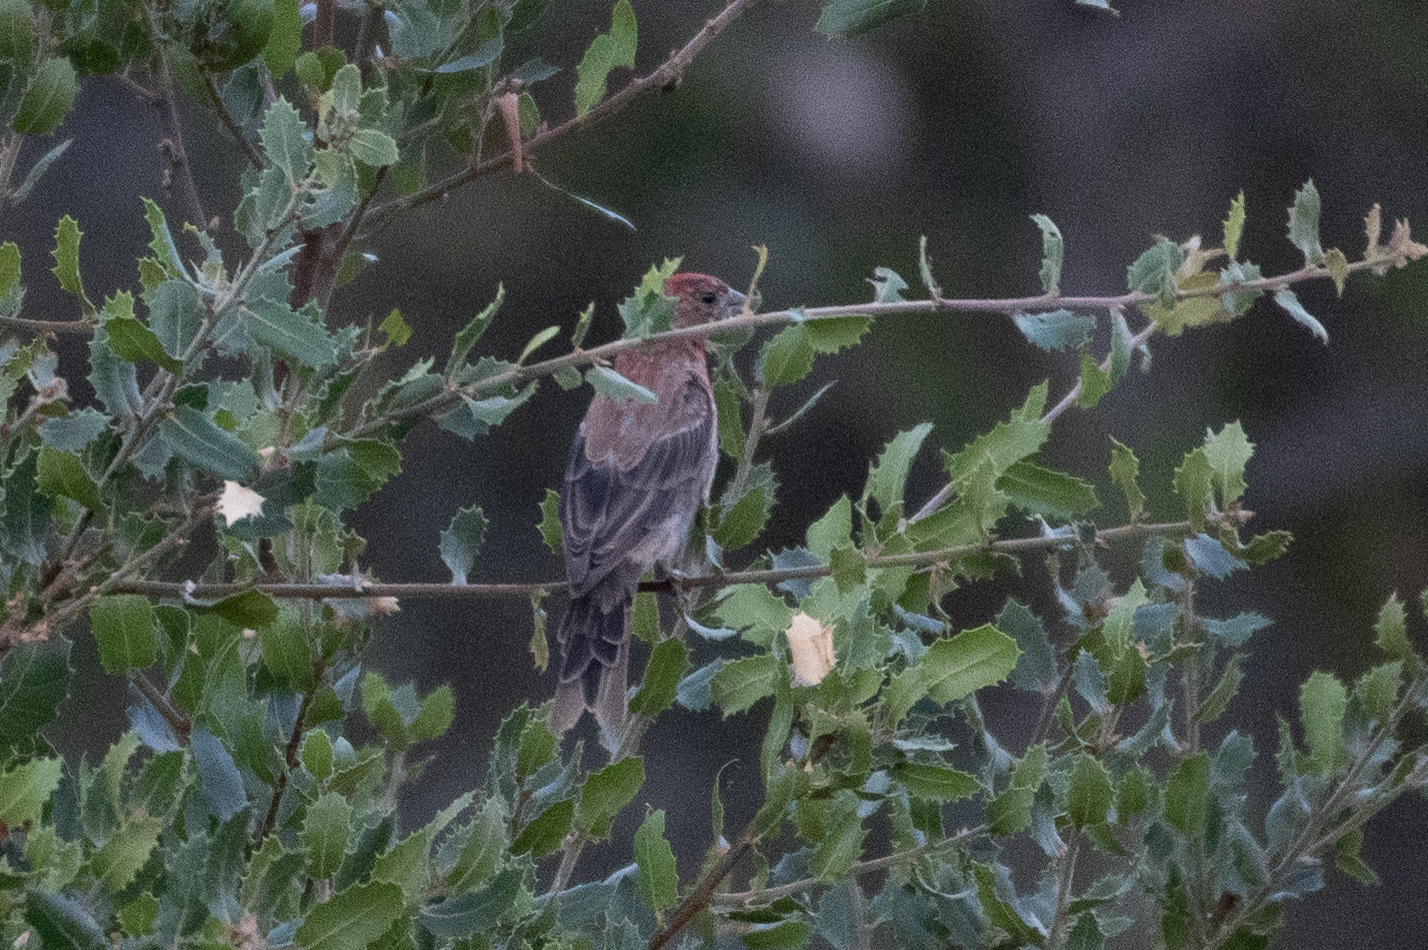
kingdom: Animalia
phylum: Chordata
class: Aves
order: Passeriformes
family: Fringillidae
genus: Haemorhous
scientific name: Haemorhous mexicanus
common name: House finch
